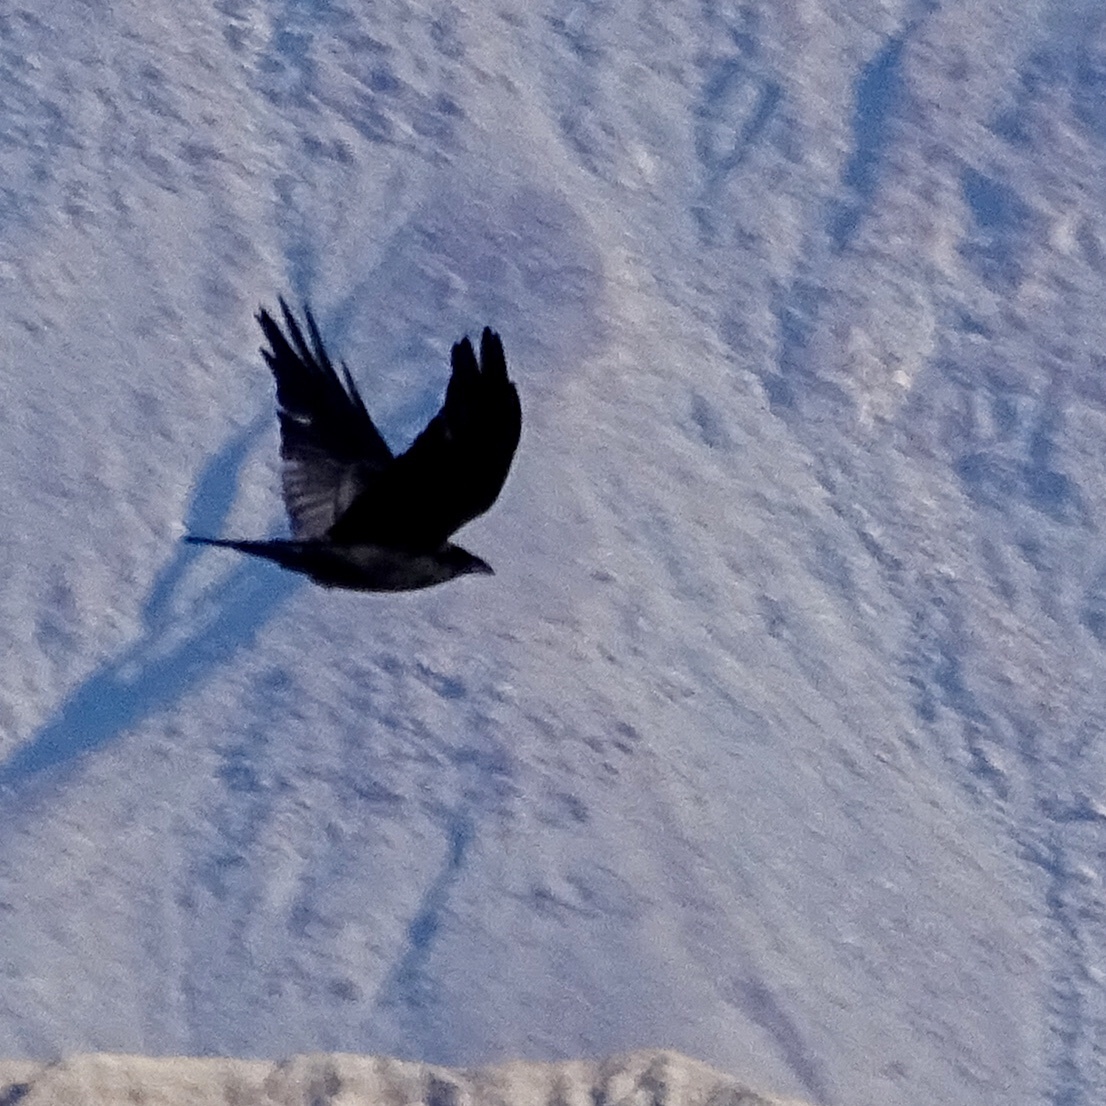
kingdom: Animalia
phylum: Chordata
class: Aves
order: Passeriformes
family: Corvidae
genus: Corvus
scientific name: Corvus corax
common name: Common raven
